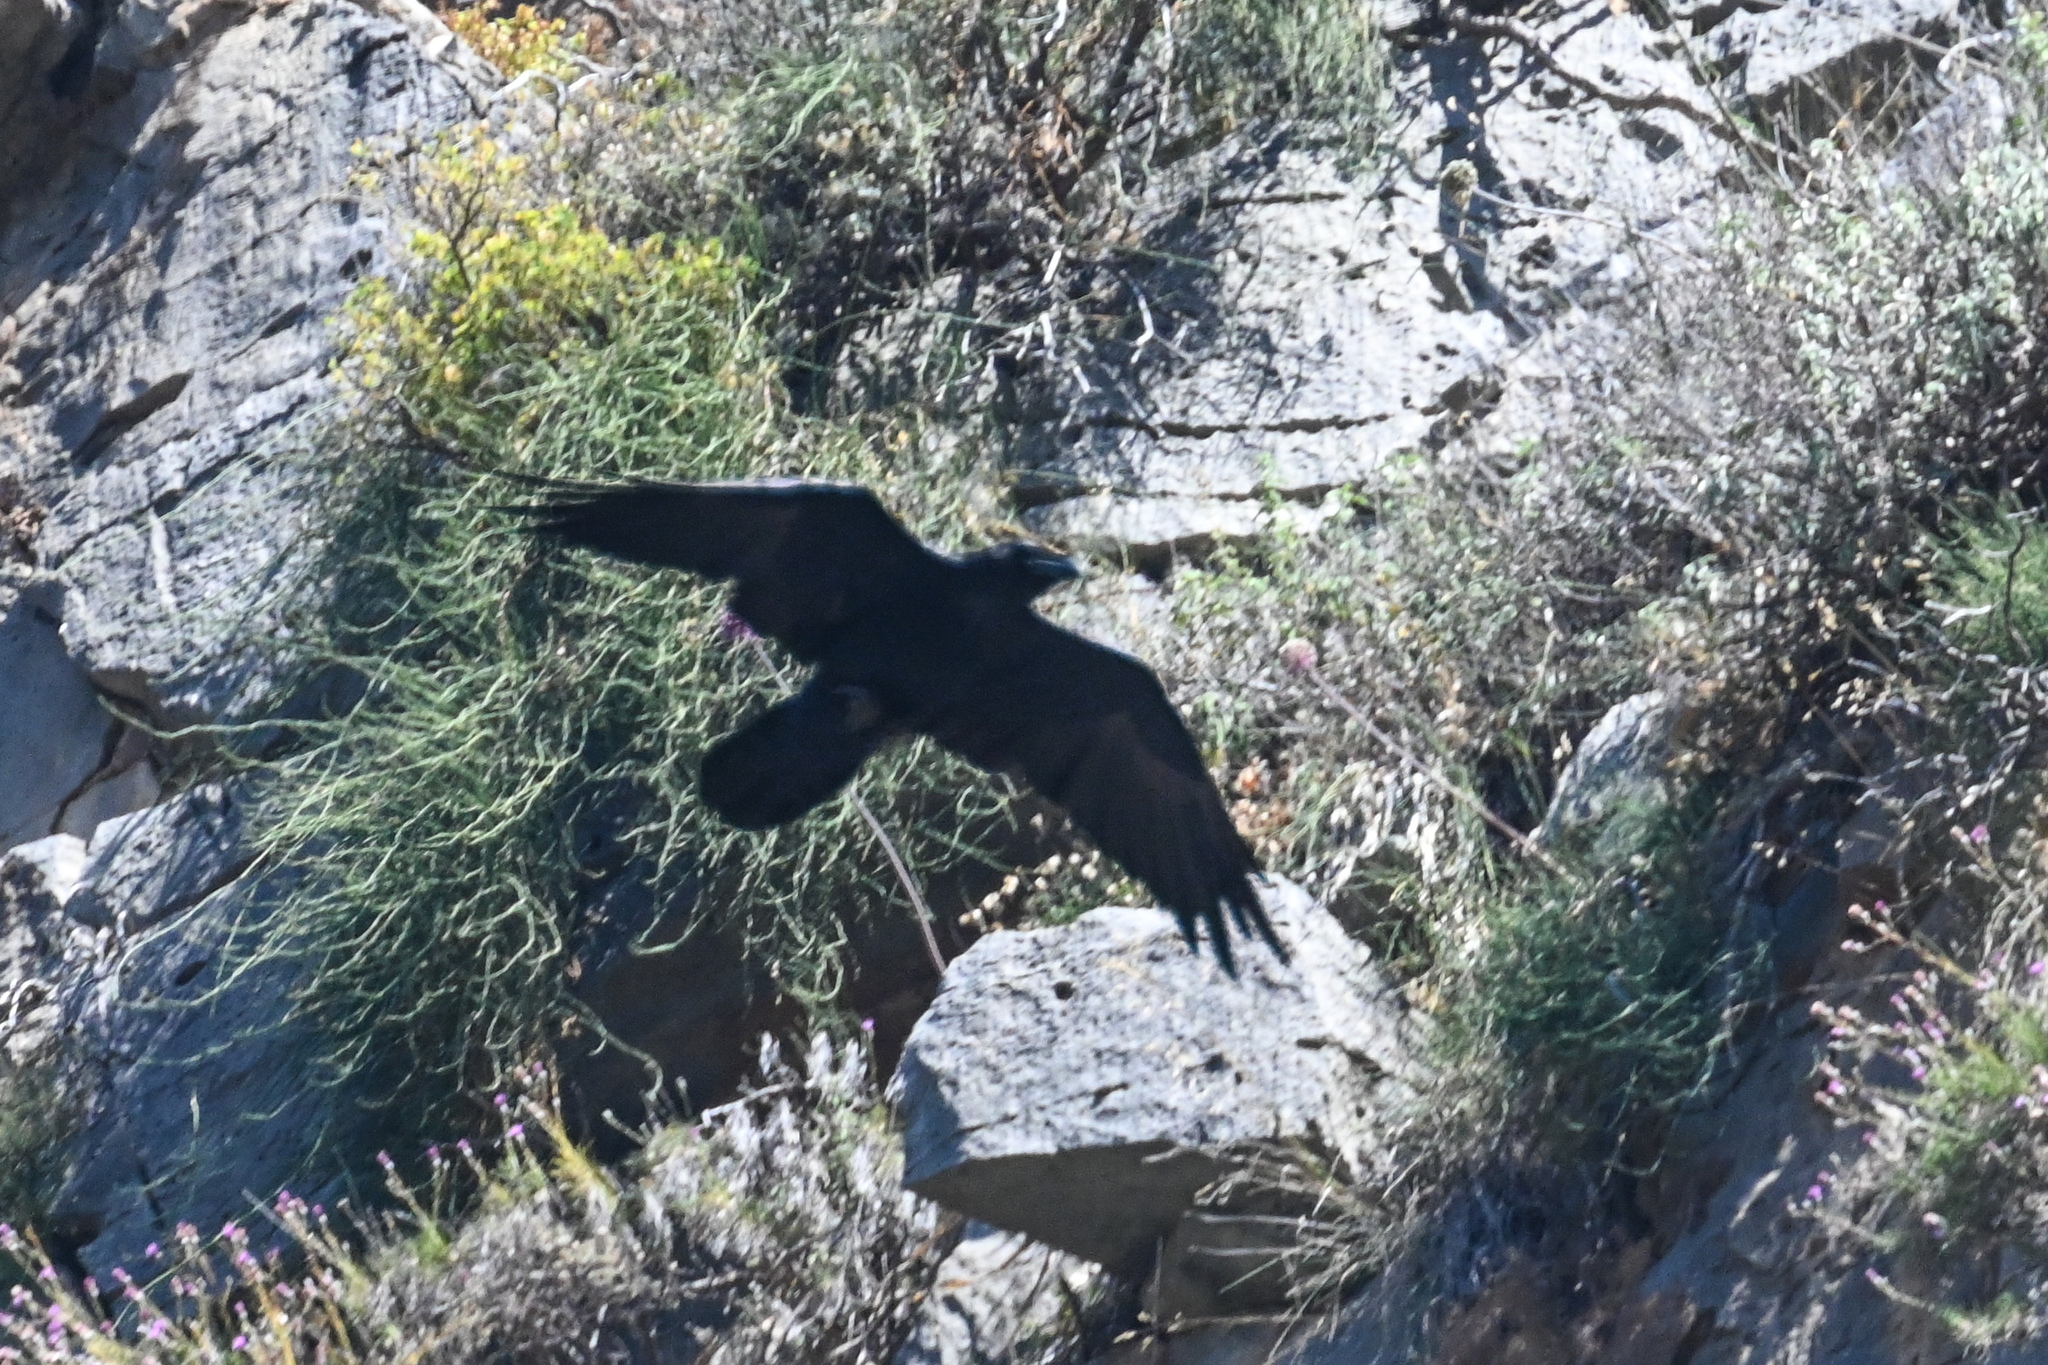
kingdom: Animalia
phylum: Chordata
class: Aves
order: Passeriformes
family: Corvidae
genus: Corvus
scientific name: Corvus corax
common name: Common raven
